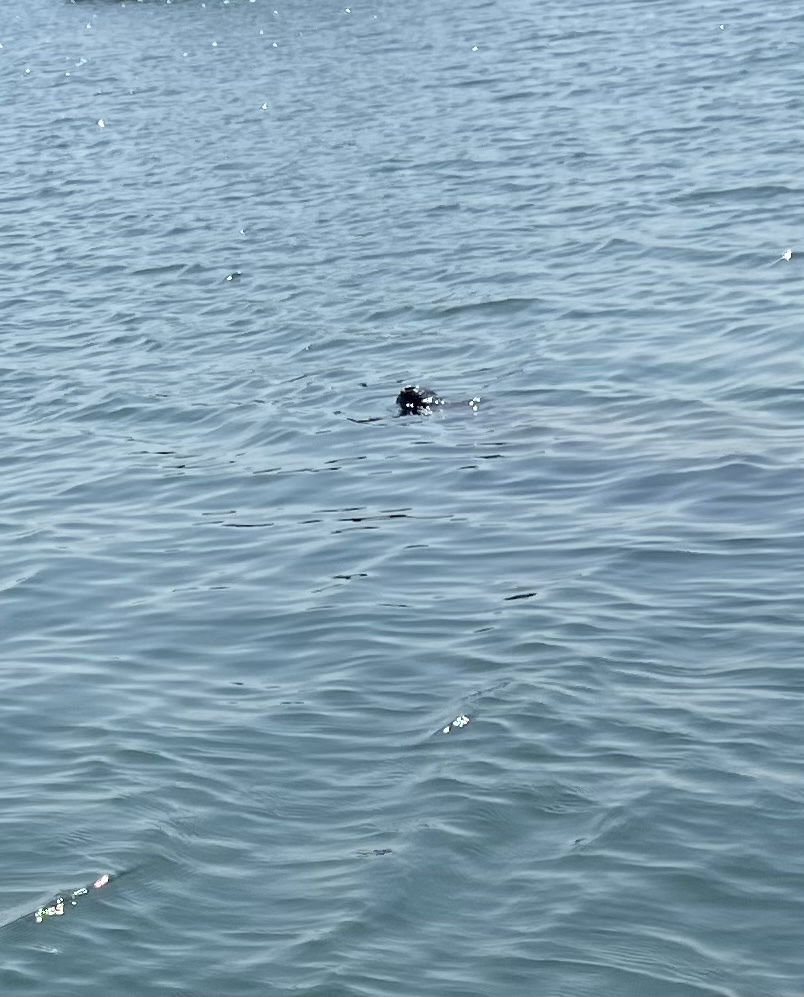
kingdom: Animalia
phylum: Chordata
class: Mammalia
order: Sirenia
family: Trichechidae
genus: Trichechus
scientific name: Trichechus manatus
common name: West indian manatee
